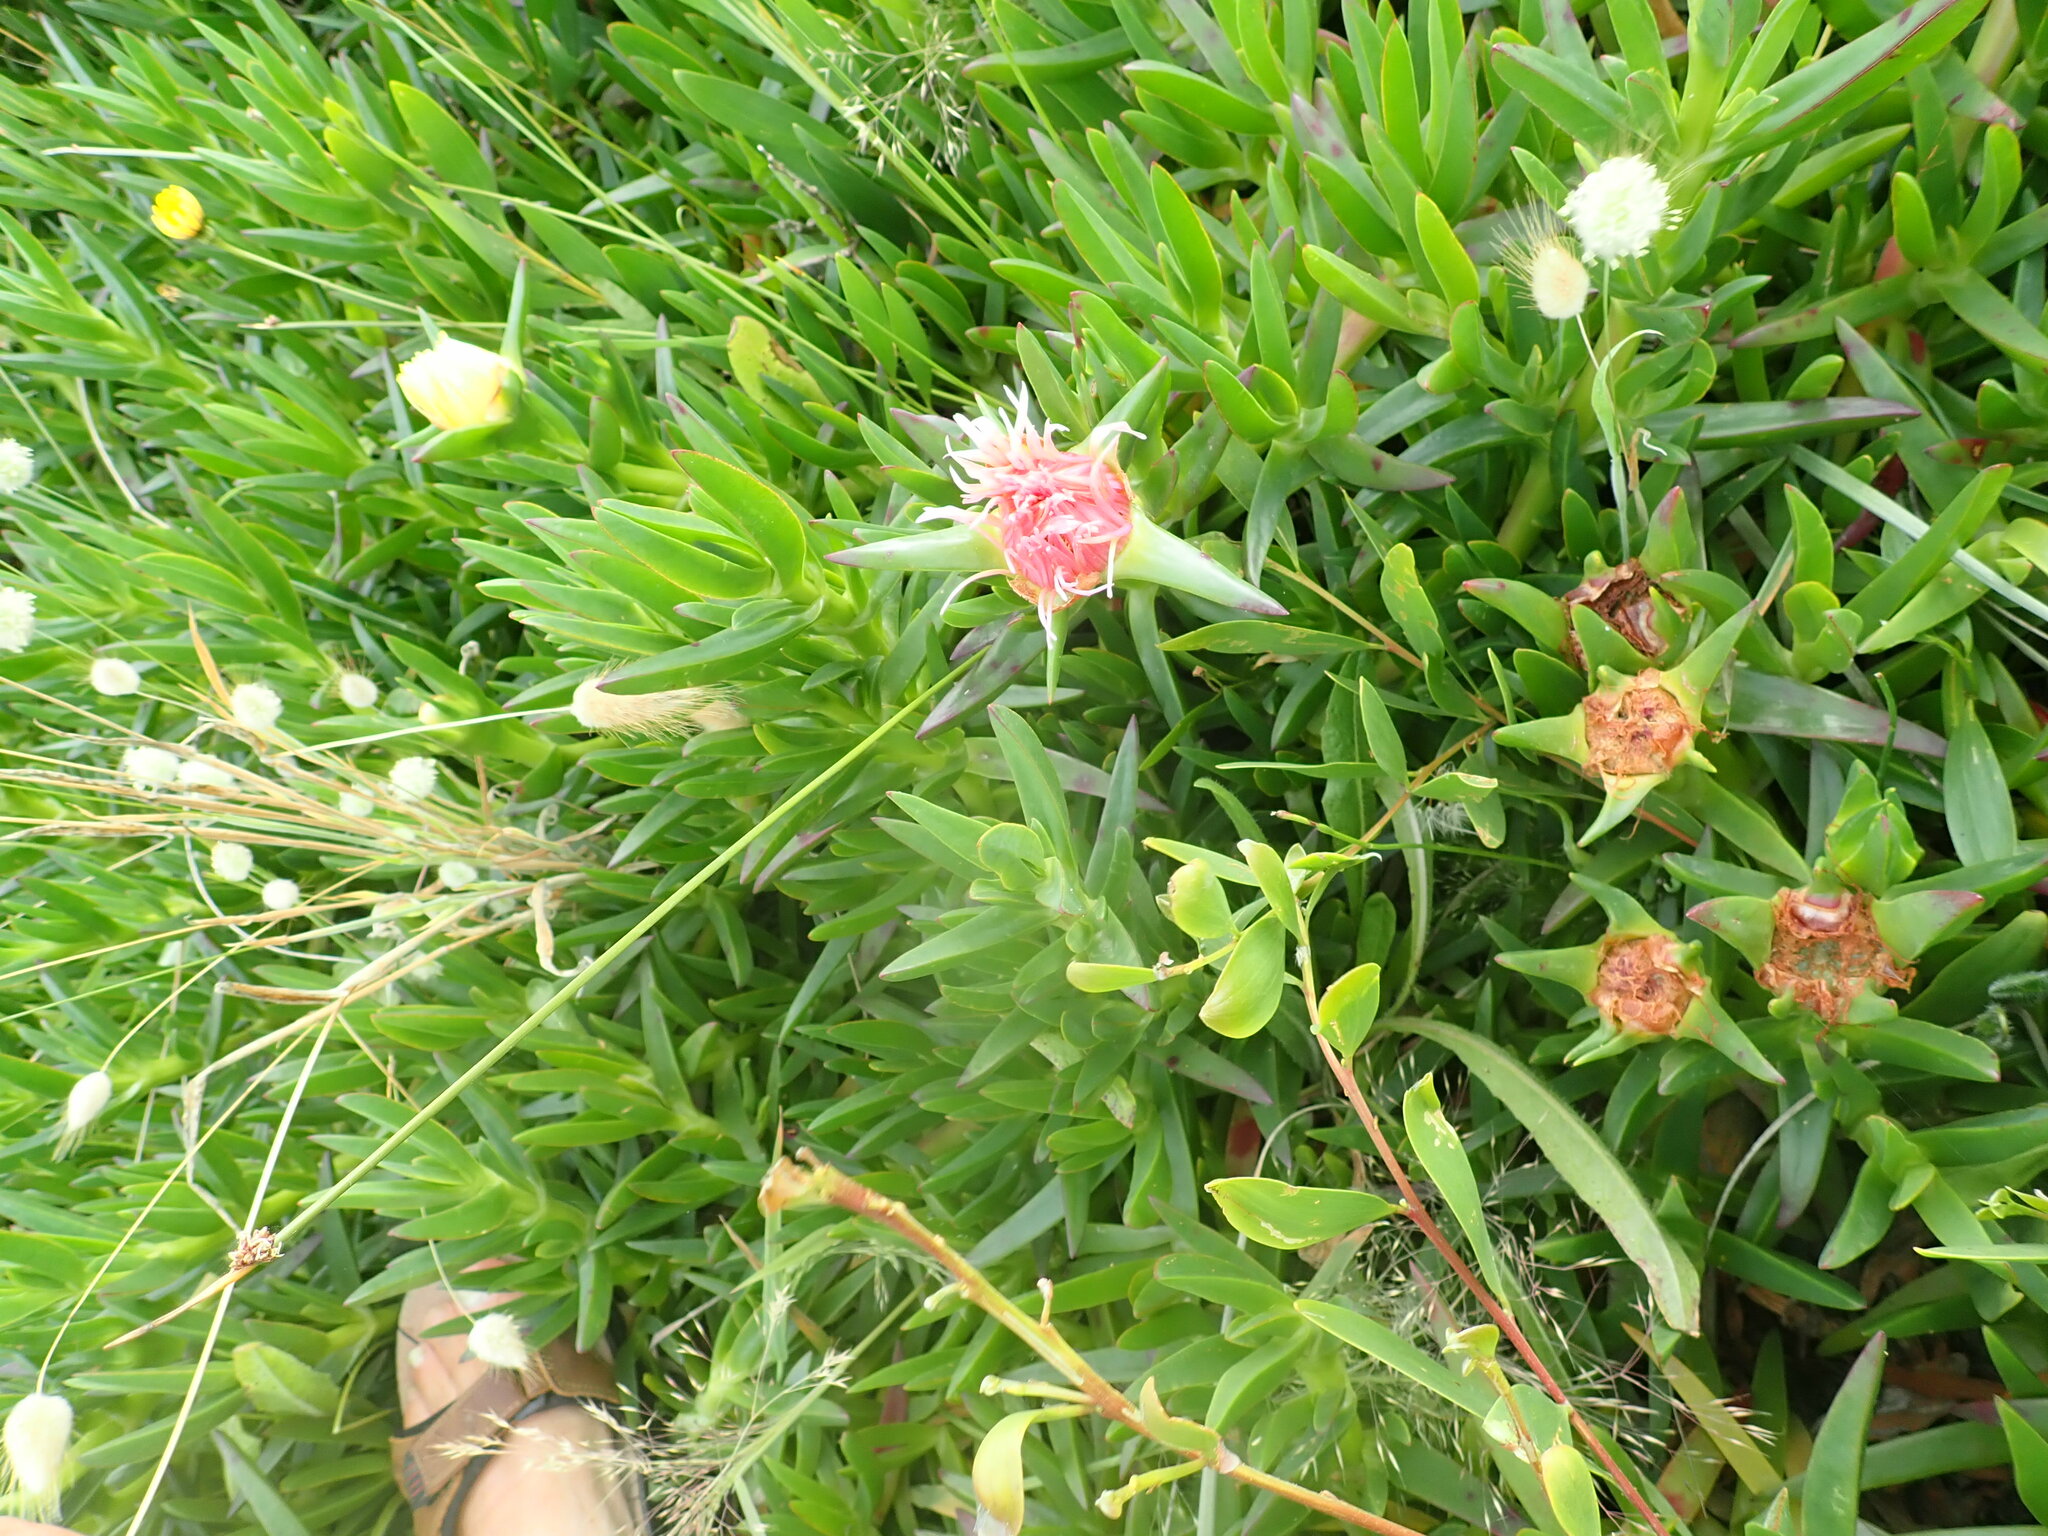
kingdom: Plantae
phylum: Tracheophyta
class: Magnoliopsida
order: Caryophyllales
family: Aizoaceae
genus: Carpobrotus
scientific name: Carpobrotus edulis
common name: Hottentot-fig
